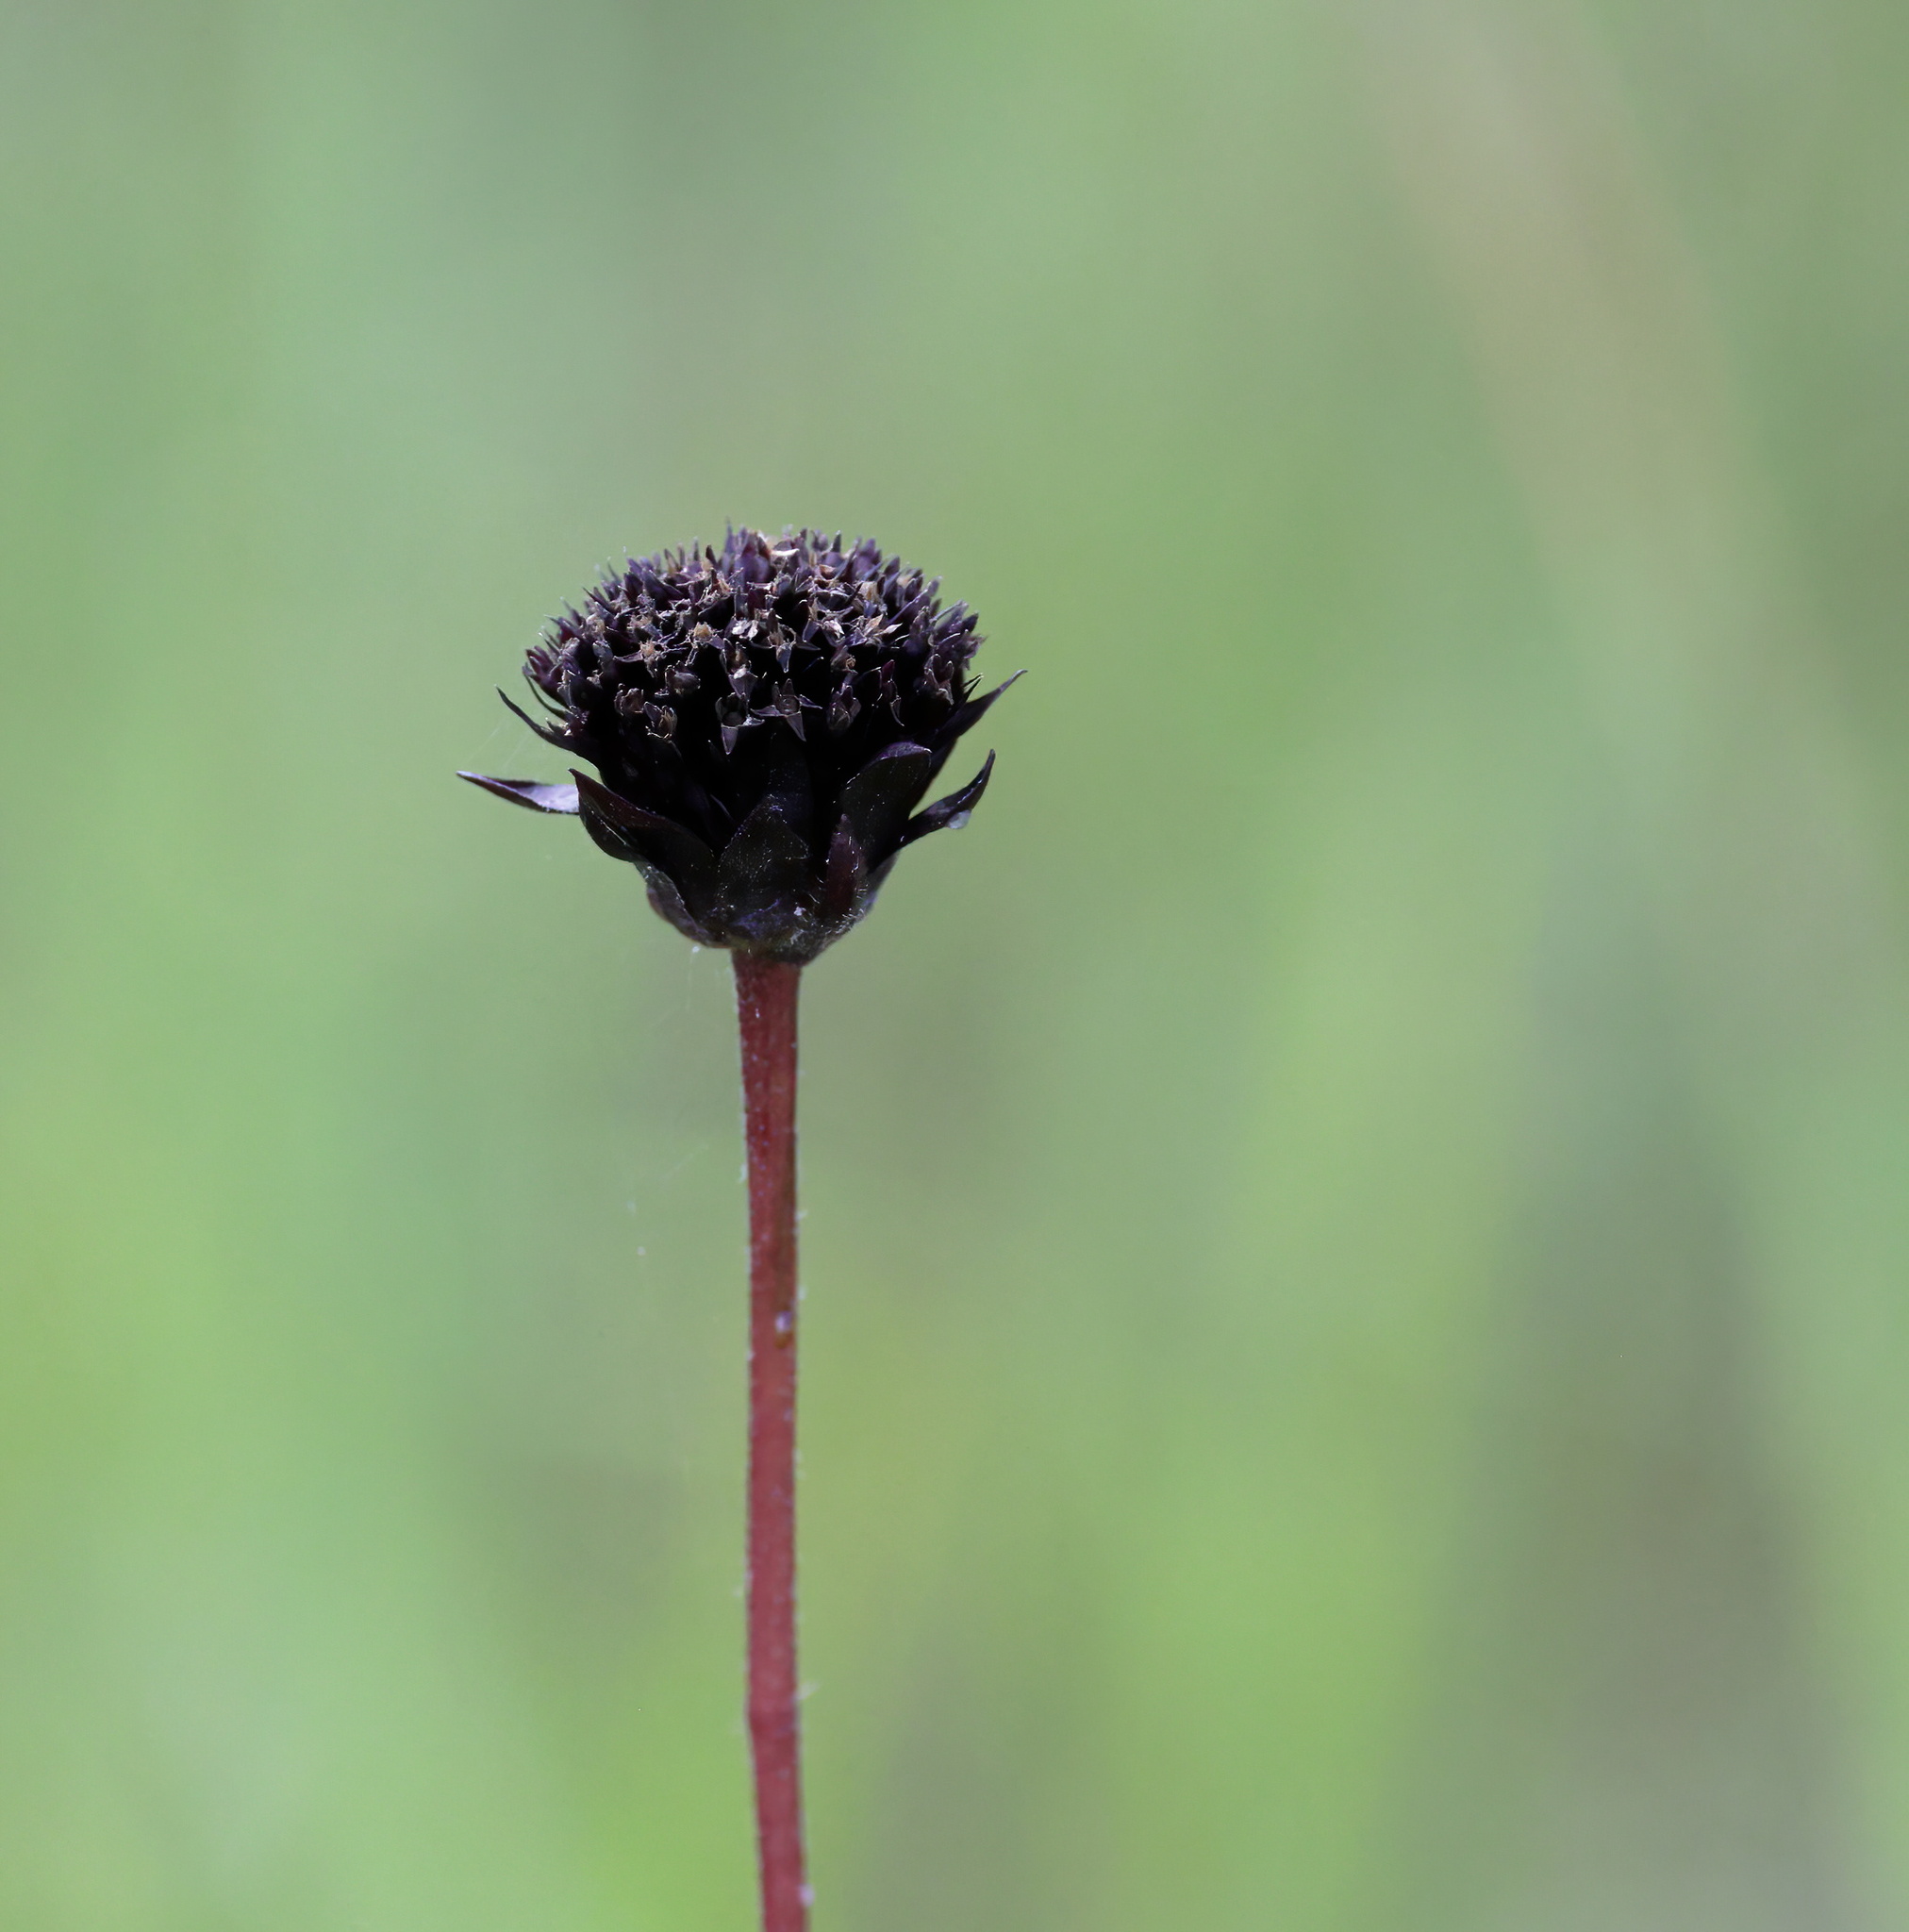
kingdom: Plantae
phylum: Tracheophyta
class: Magnoliopsida
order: Asterales
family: Asteraceae
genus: Helianthus
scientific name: Helianthus radula
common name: Pineland sunflower
